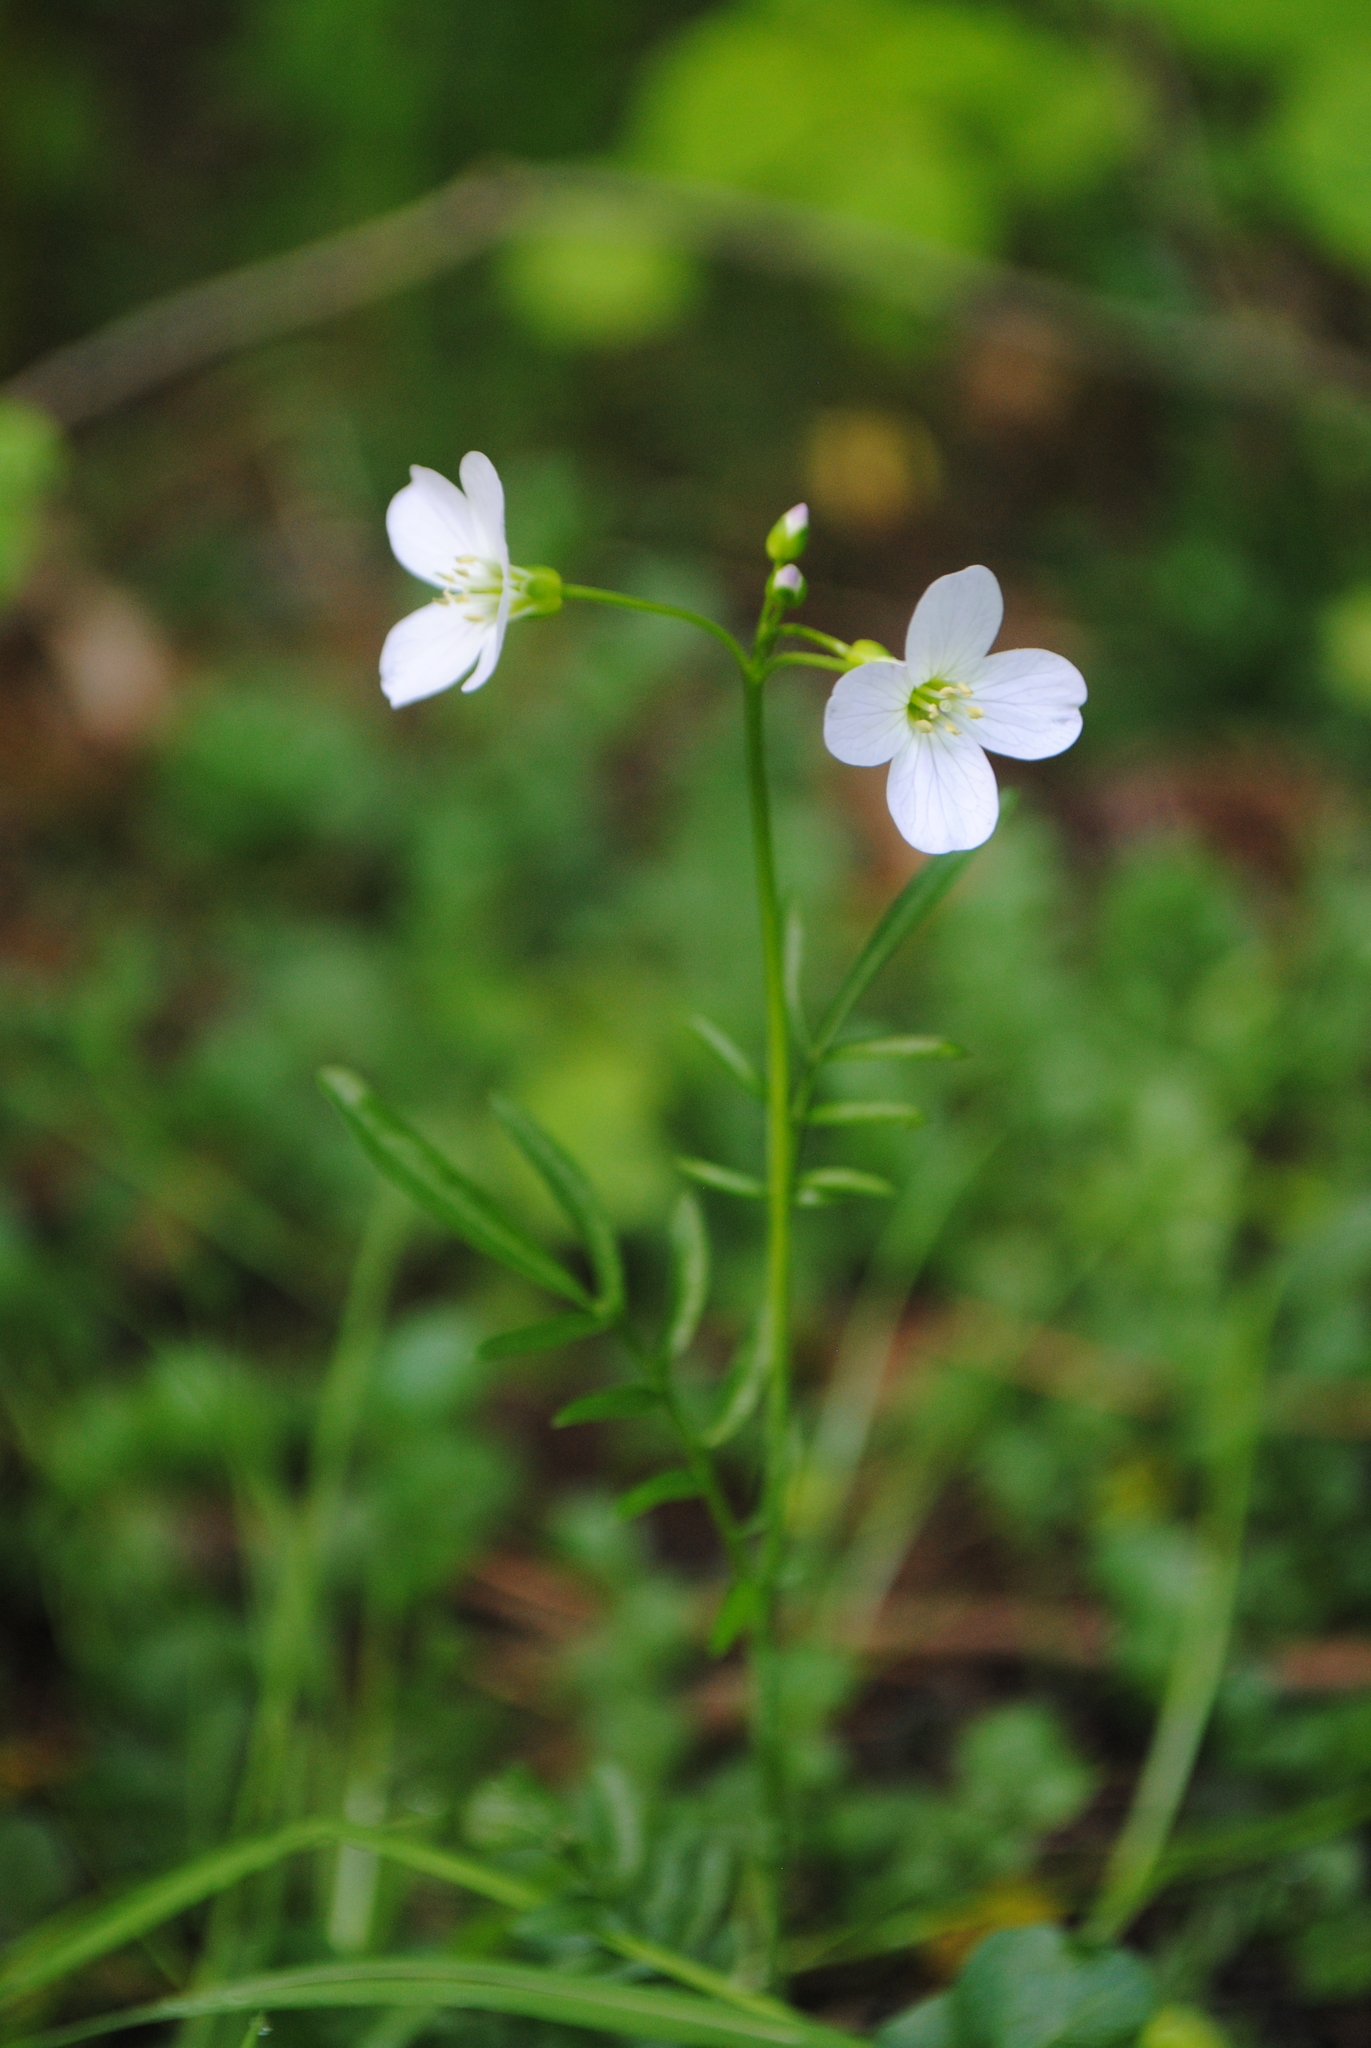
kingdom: Plantae
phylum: Tracheophyta
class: Magnoliopsida
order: Brassicales
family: Brassicaceae
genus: Cardamine
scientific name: Cardamine pratensis
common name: Cuckoo flower
